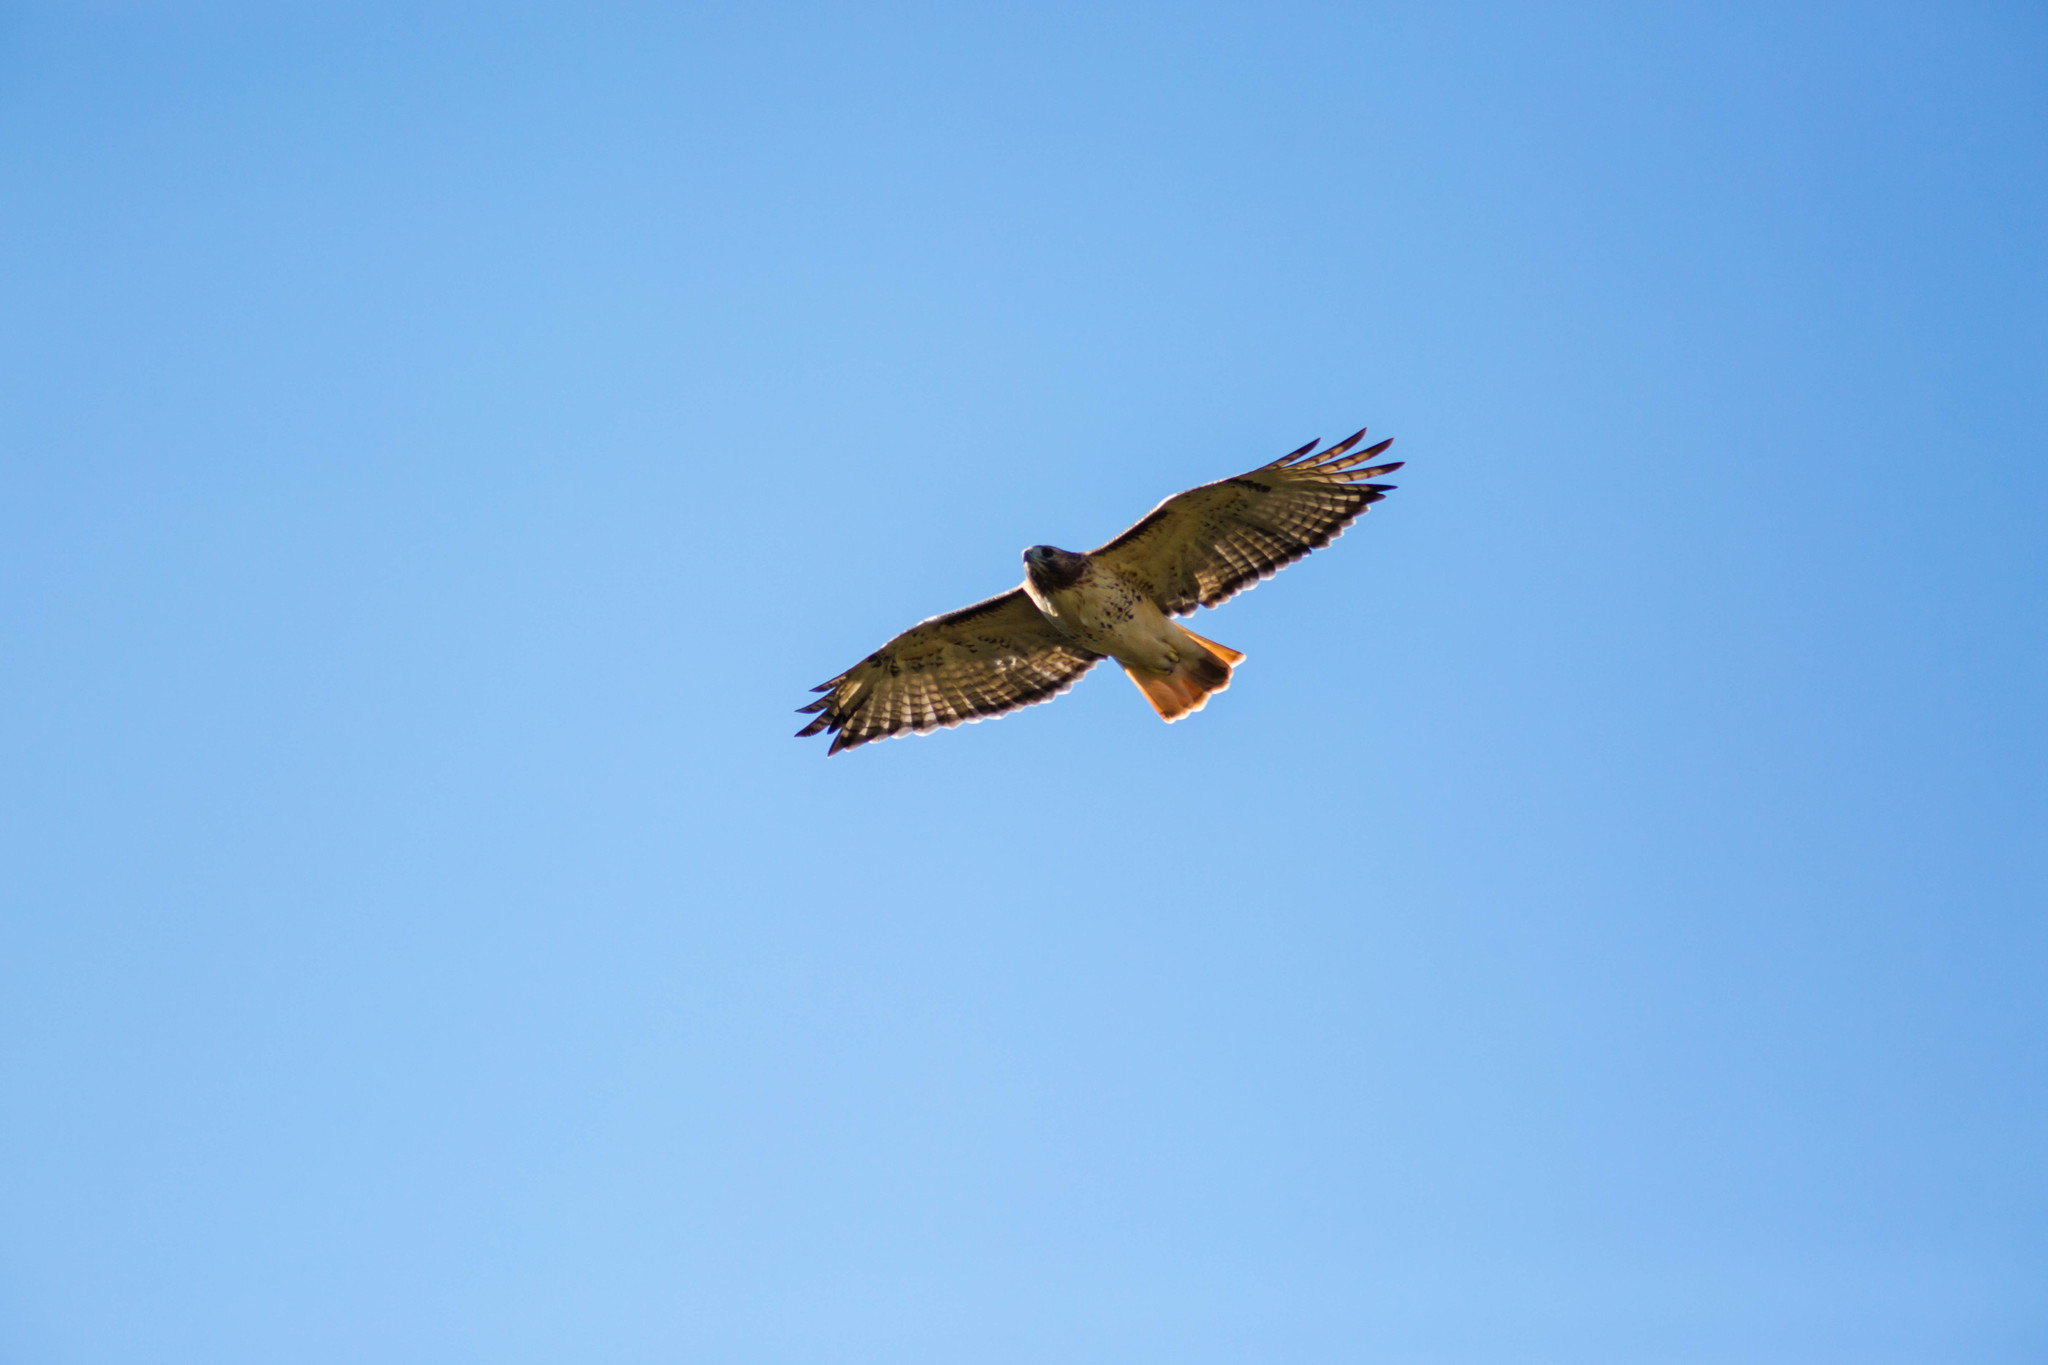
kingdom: Animalia
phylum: Chordata
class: Aves
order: Accipitriformes
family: Accipitridae
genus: Buteo
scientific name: Buteo jamaicensis
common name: Red-tailed hawk
